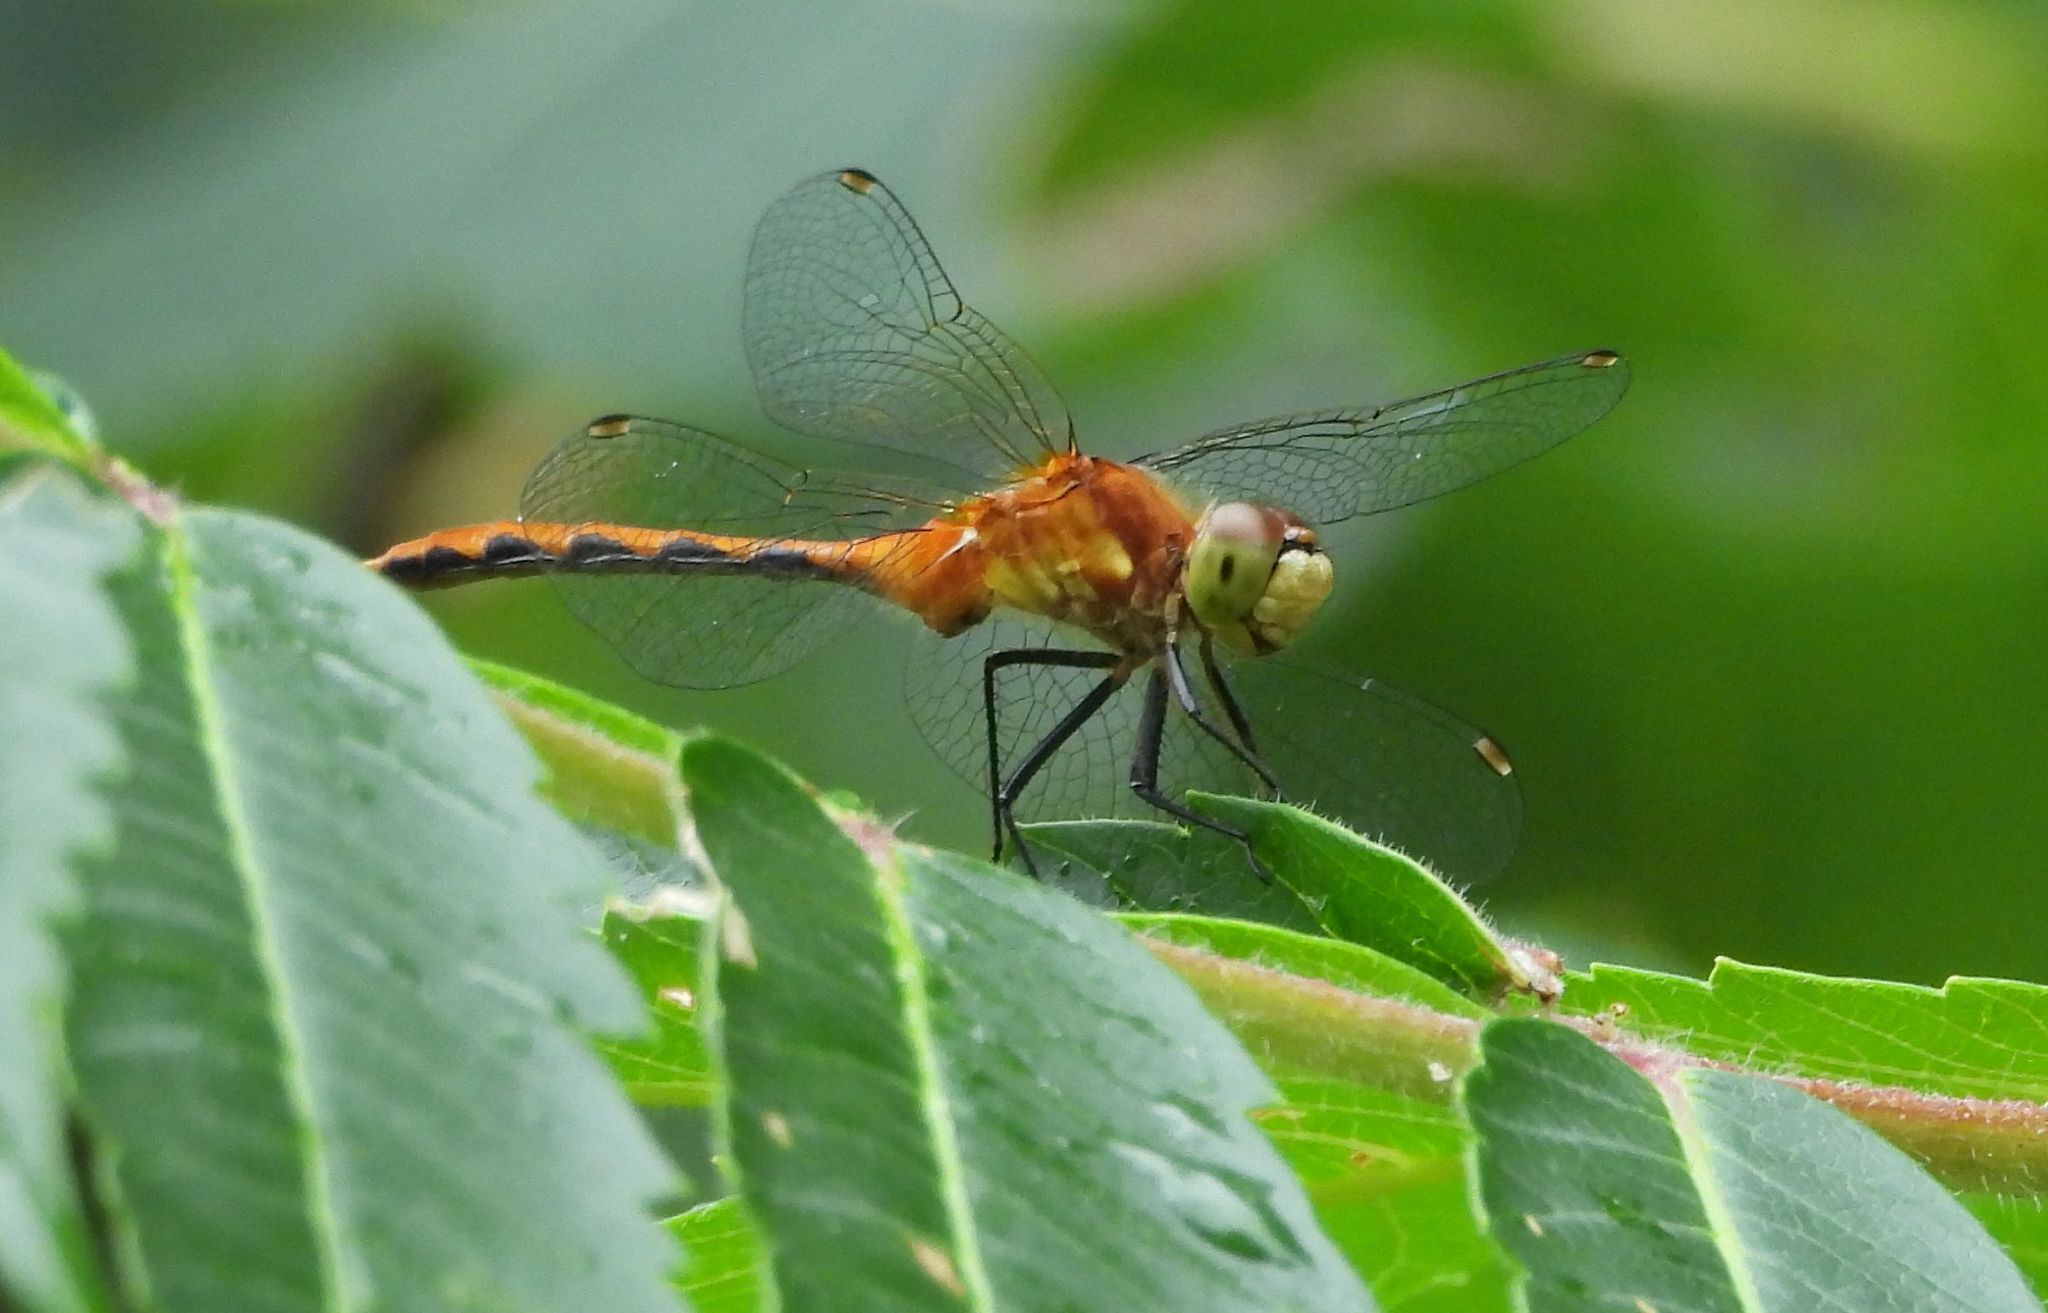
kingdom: Animalia
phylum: Arthropoda
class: Insecta
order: Odonata
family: Libellulidae
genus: Sympetrum
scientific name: Sympetrum obtrusum
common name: White-faced meadowhawk
